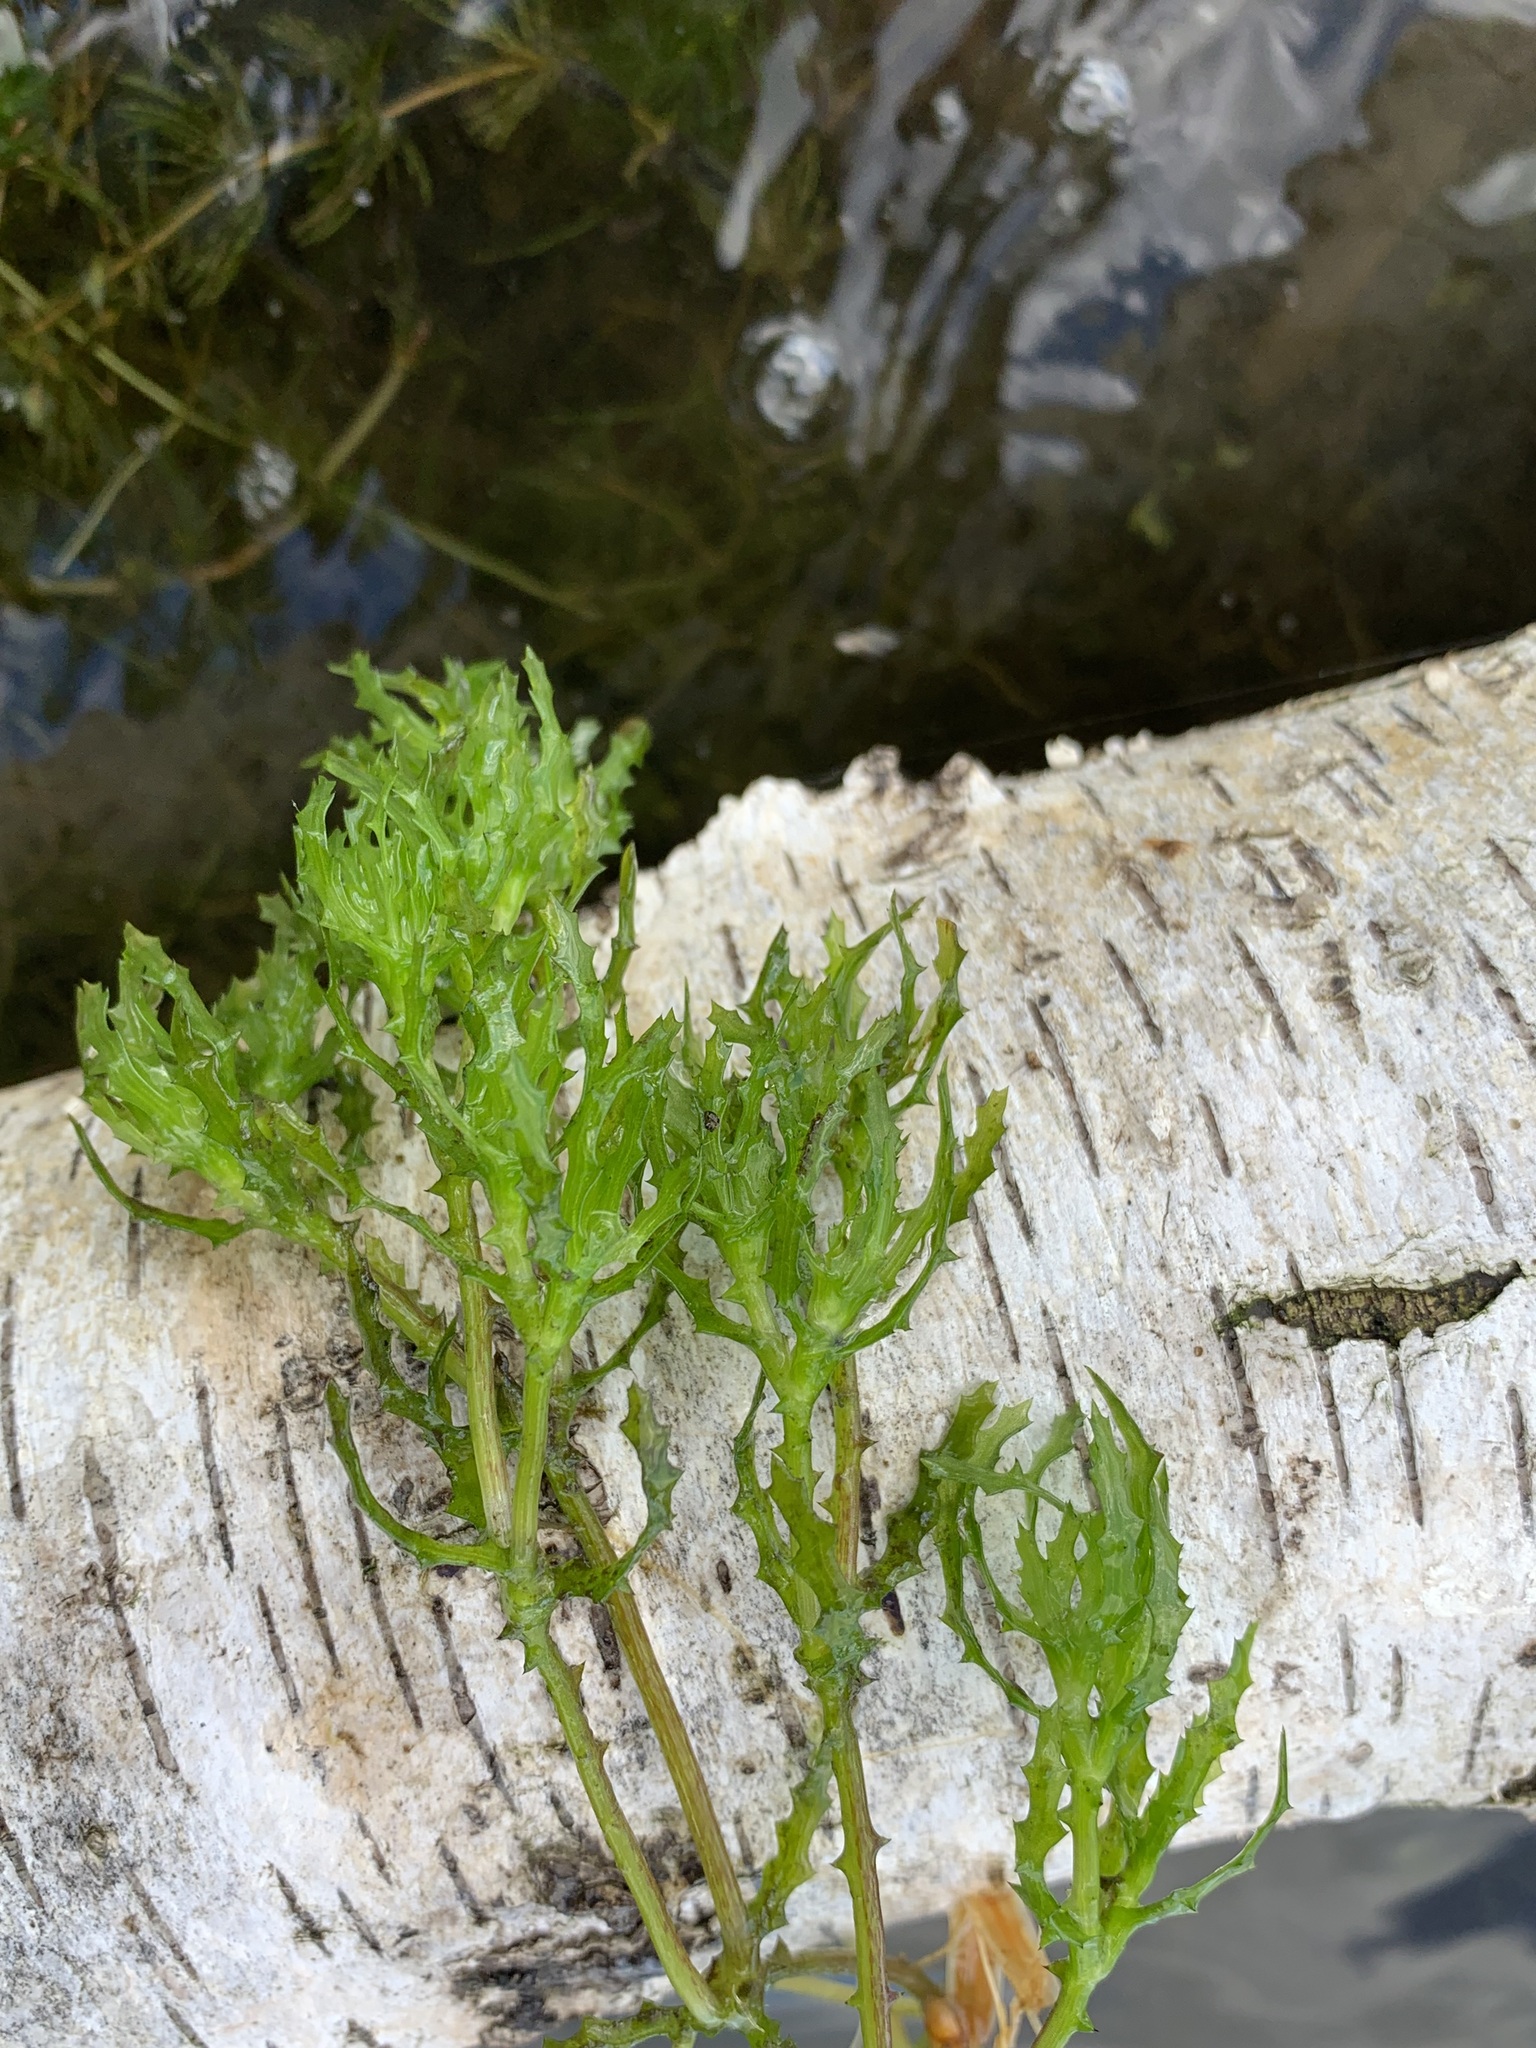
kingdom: Plantae
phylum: Tracheophyta
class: Liliopsida
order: Alismatales
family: Hydrocharitaceae
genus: Najas
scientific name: Najas major
